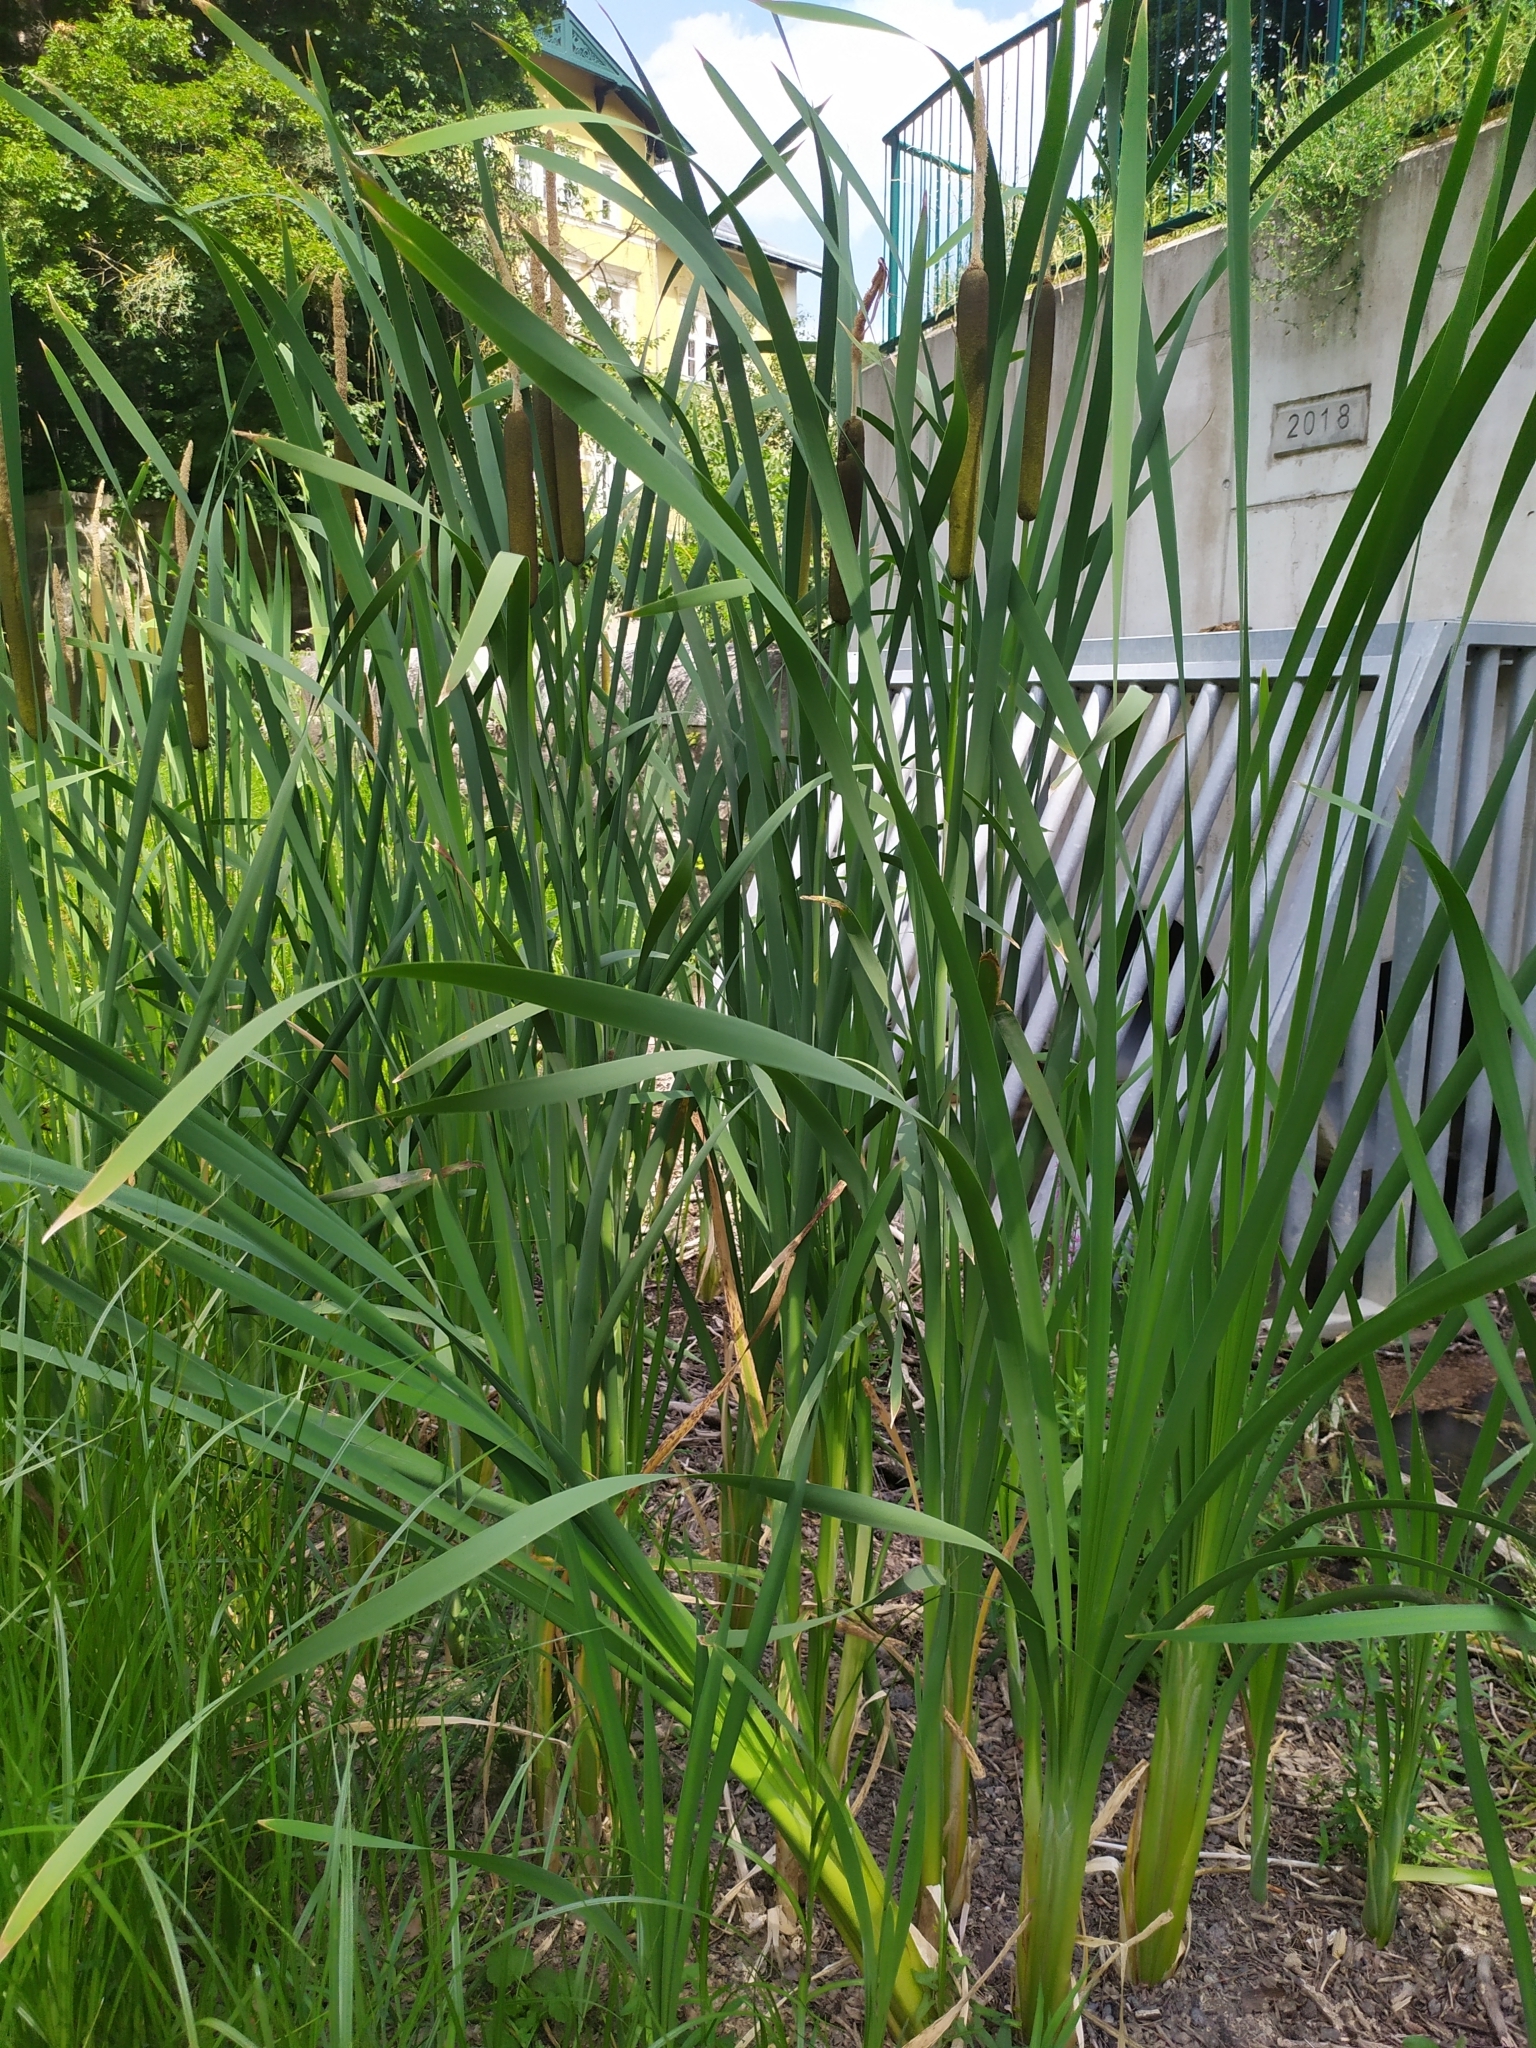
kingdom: Plantae
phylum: Tracheophyta
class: Liliopsida
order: Poales
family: Typhaceae
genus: Typha
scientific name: Typha latifolia
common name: Broadleaf cattail
